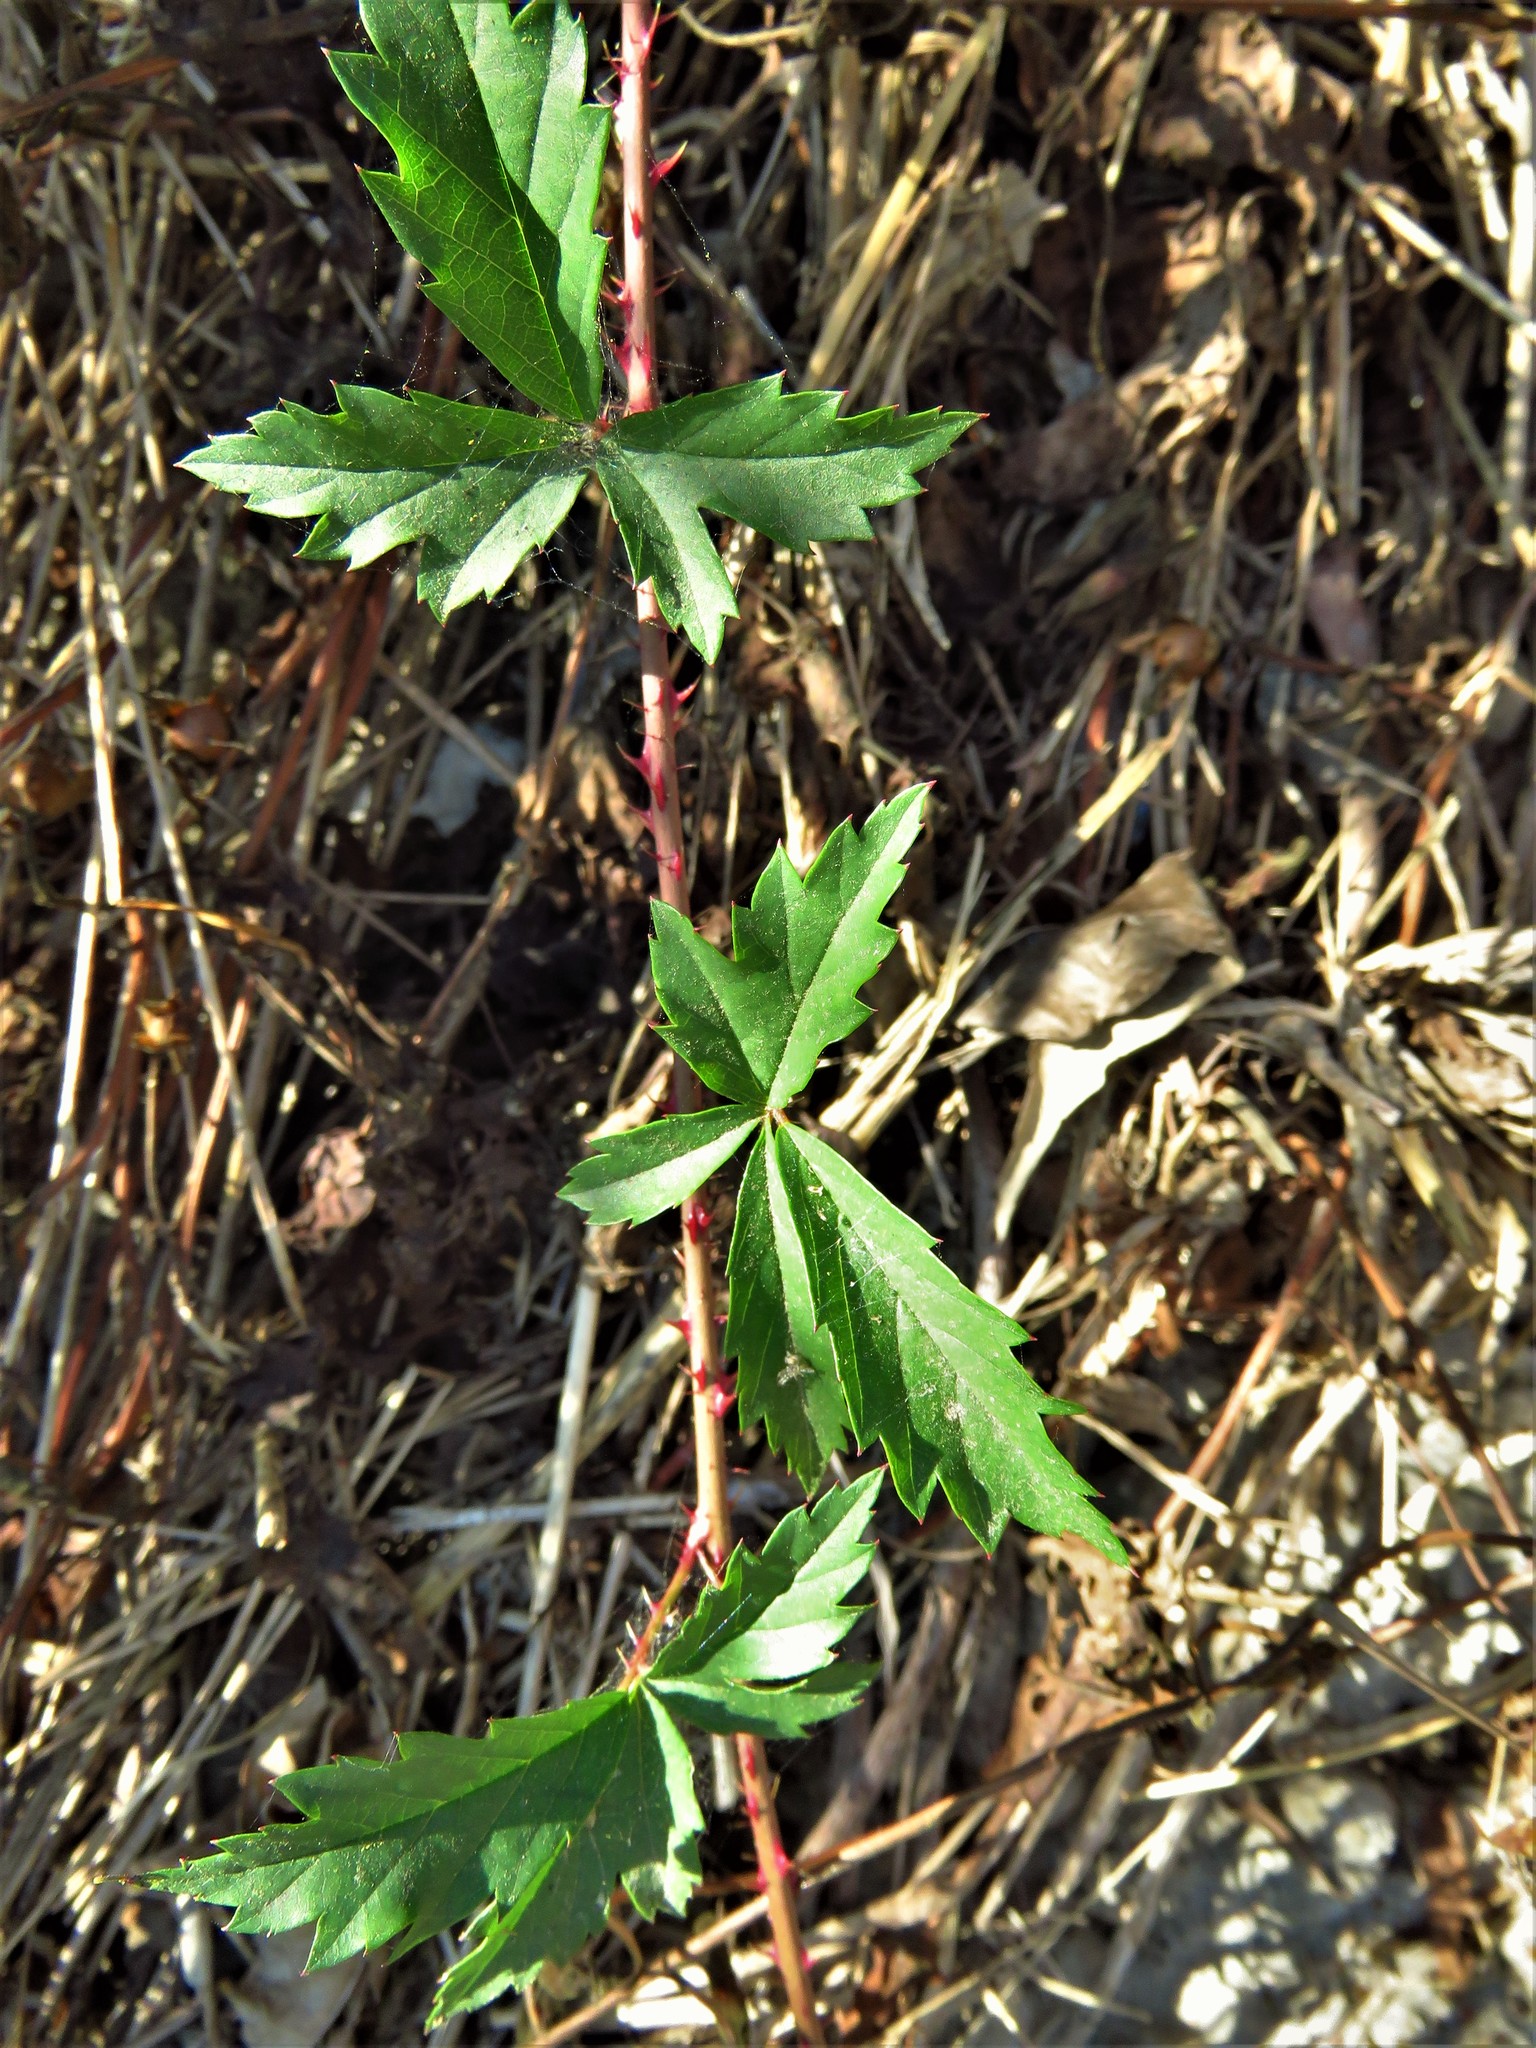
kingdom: Plantae
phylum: Tracheophyta
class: Magnoliopsida
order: Rosales
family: Rosaceae
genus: Rubus
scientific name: Rubus trivialis
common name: Southern dewberry
